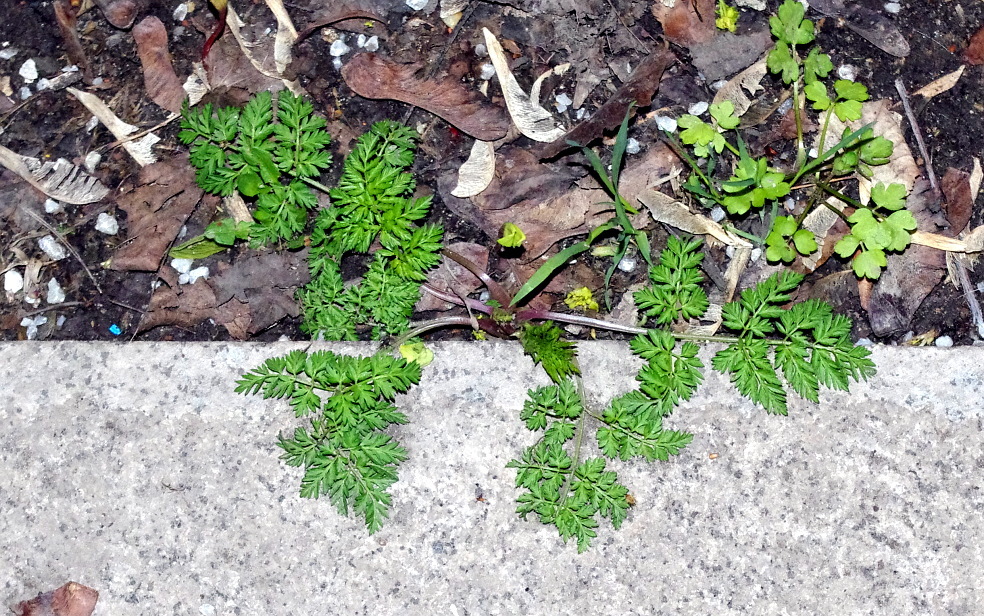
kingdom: Plantae
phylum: Tracheophyta
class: Magnoliopsida
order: Apiales
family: Apiaceae
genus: Anthriscus
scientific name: Anthriscus sylvestris
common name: Cow parsley
